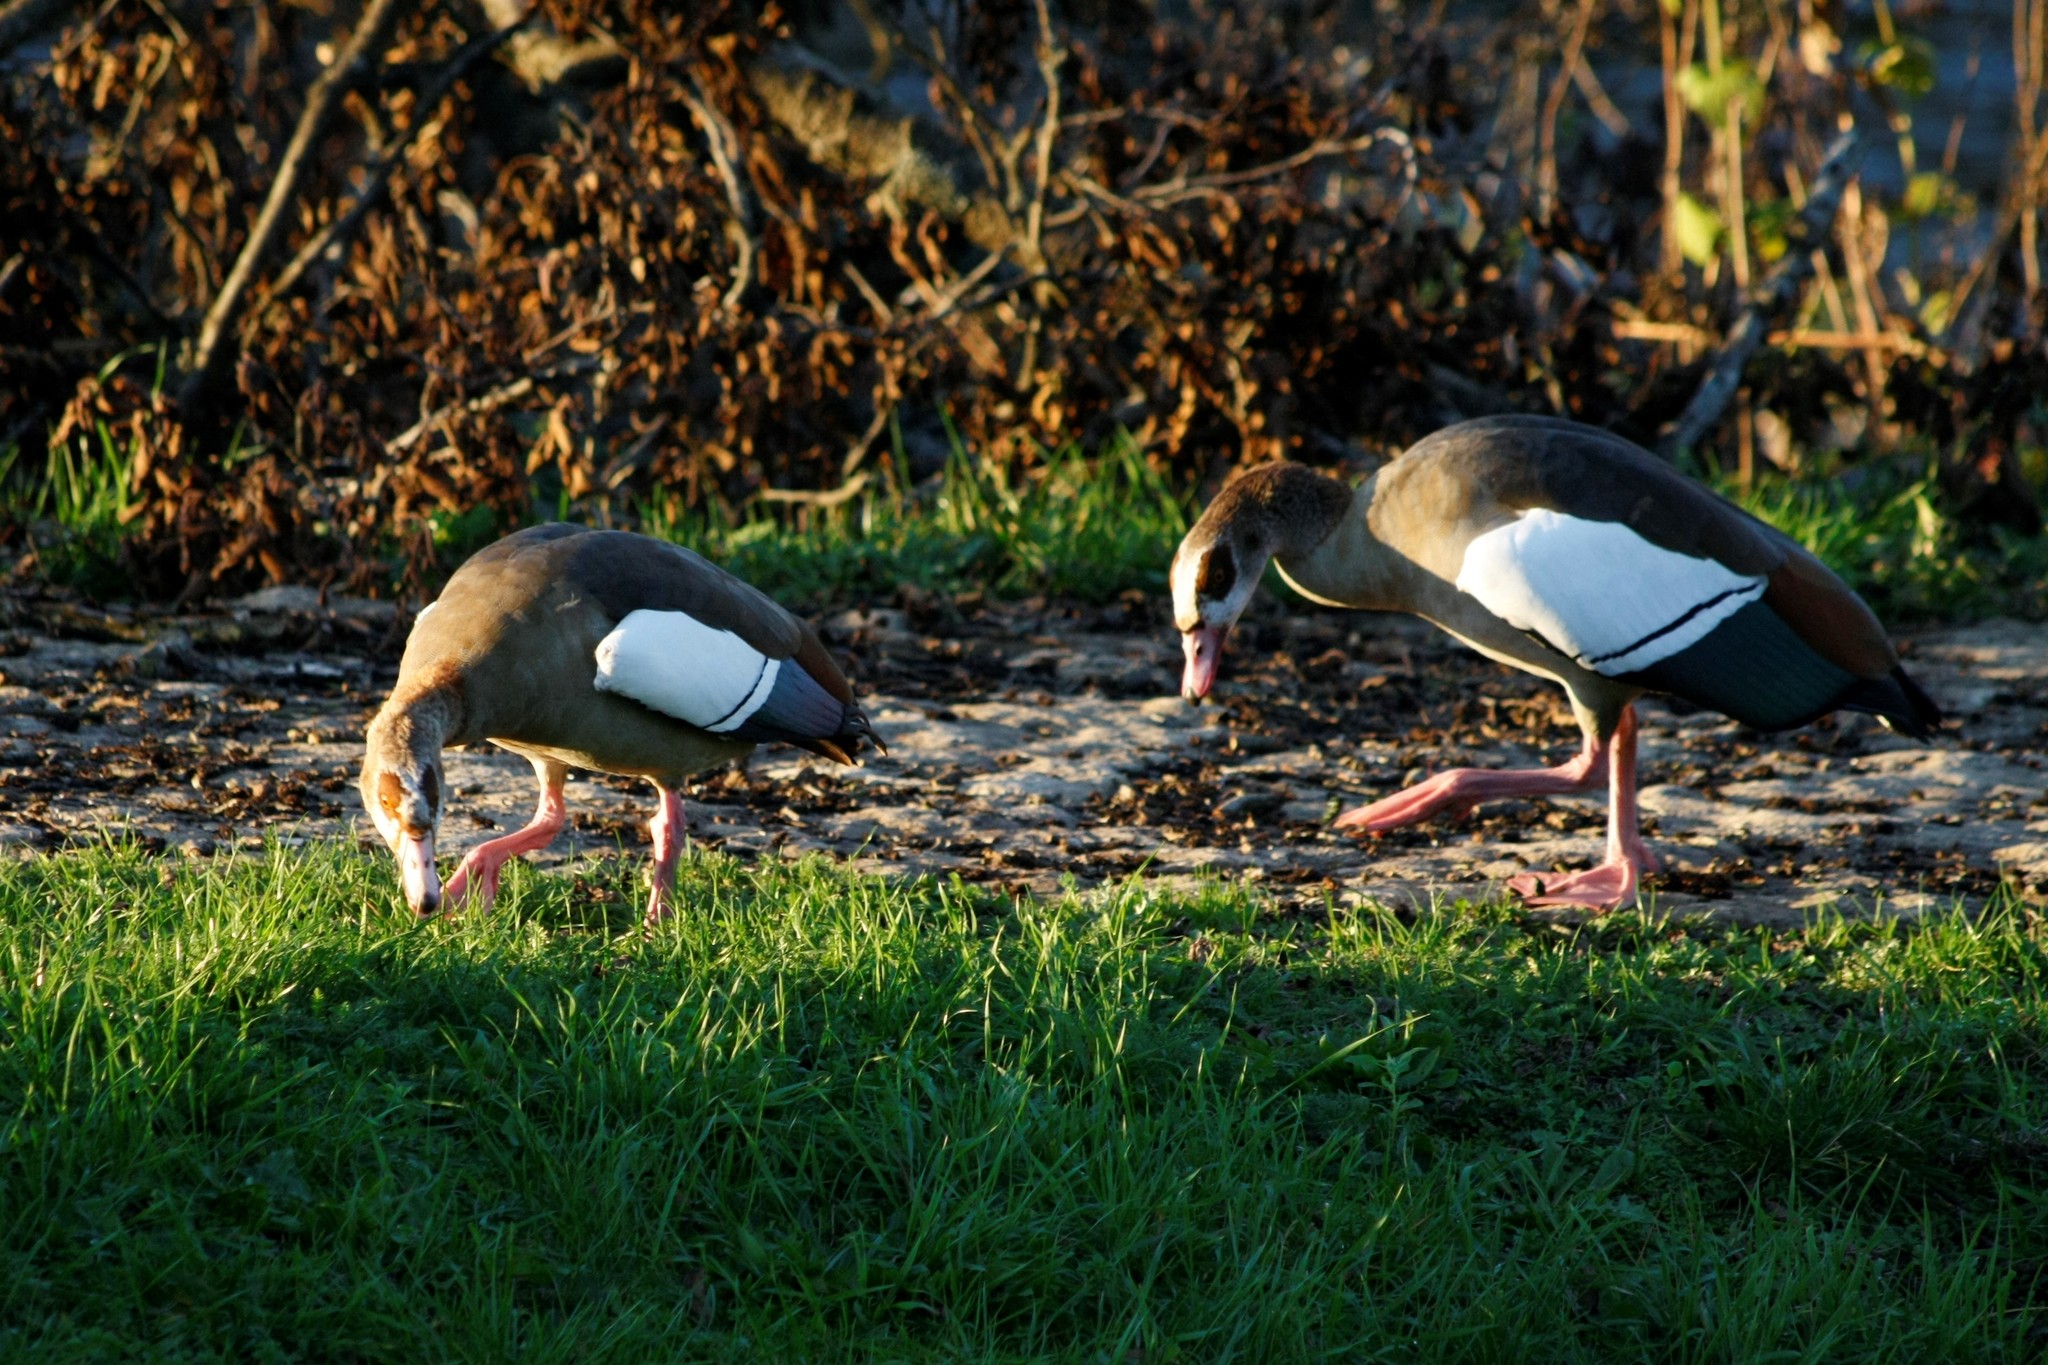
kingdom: Animalia
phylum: Chordata
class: Aves
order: Anseriformes
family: Anatidae
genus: Alopochen
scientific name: Alopochen aegyptiaca
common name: Egyptian goose
